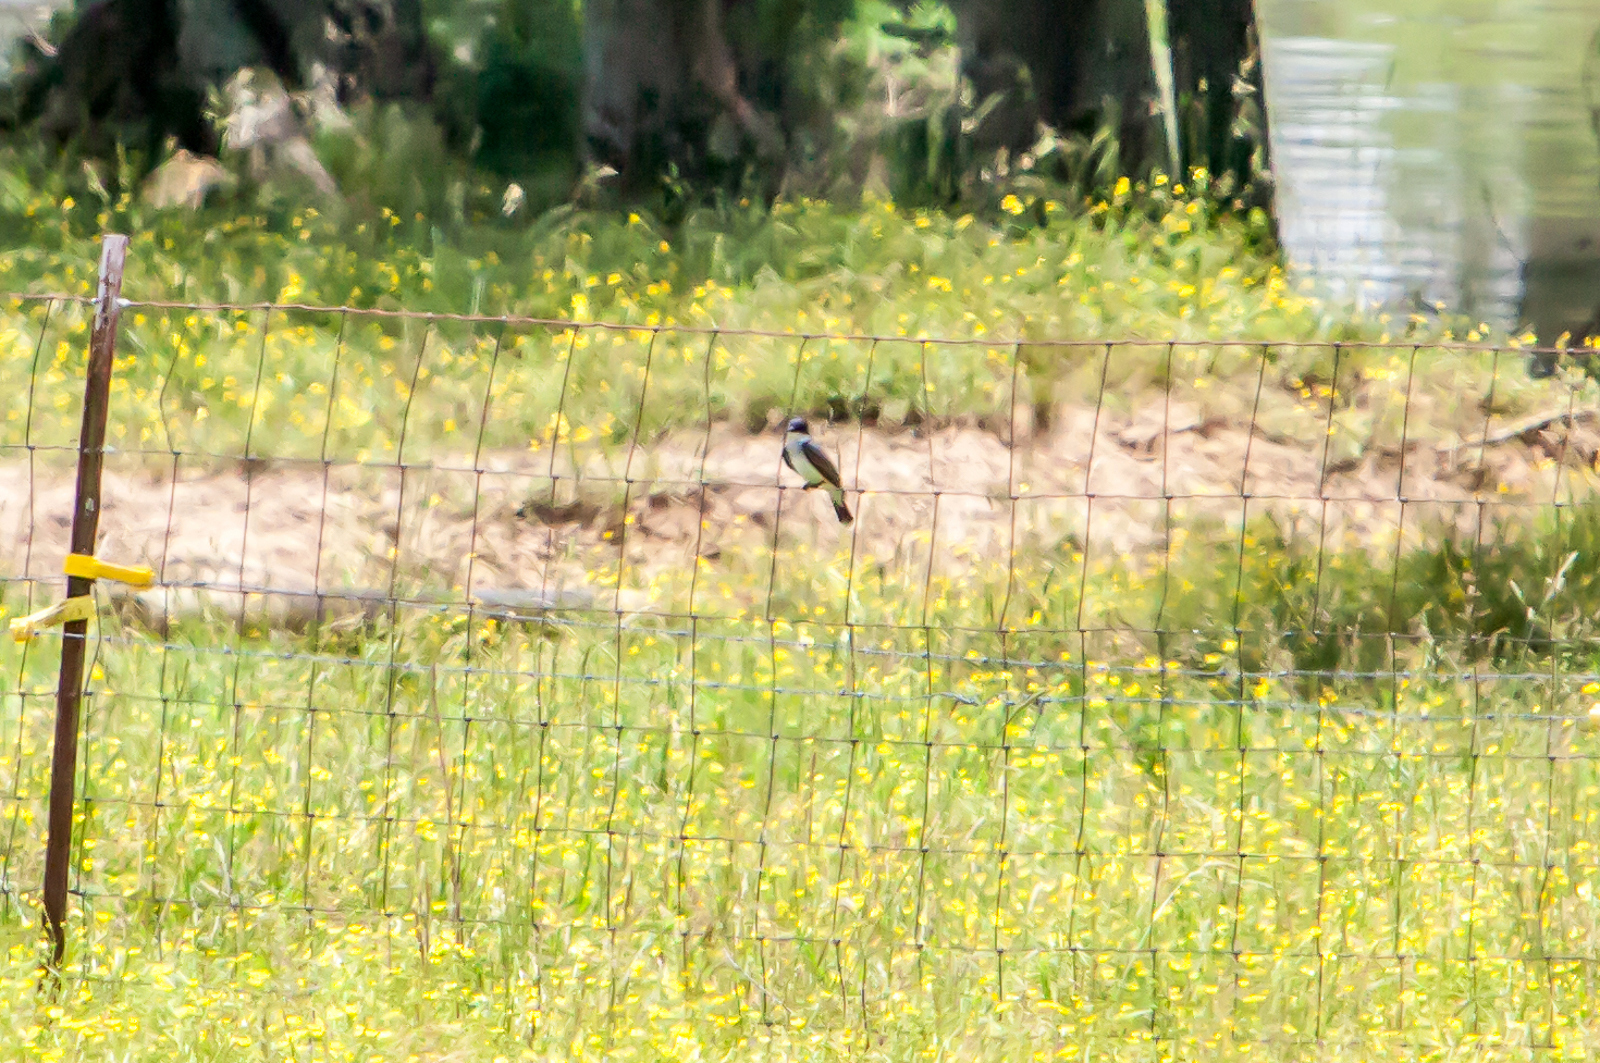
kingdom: Animalia
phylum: Chordata
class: Aves
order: Passeriformes
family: Tyrannidae
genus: Tyrannus
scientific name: Tyrannus tyrannus
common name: Eastern kingbird
